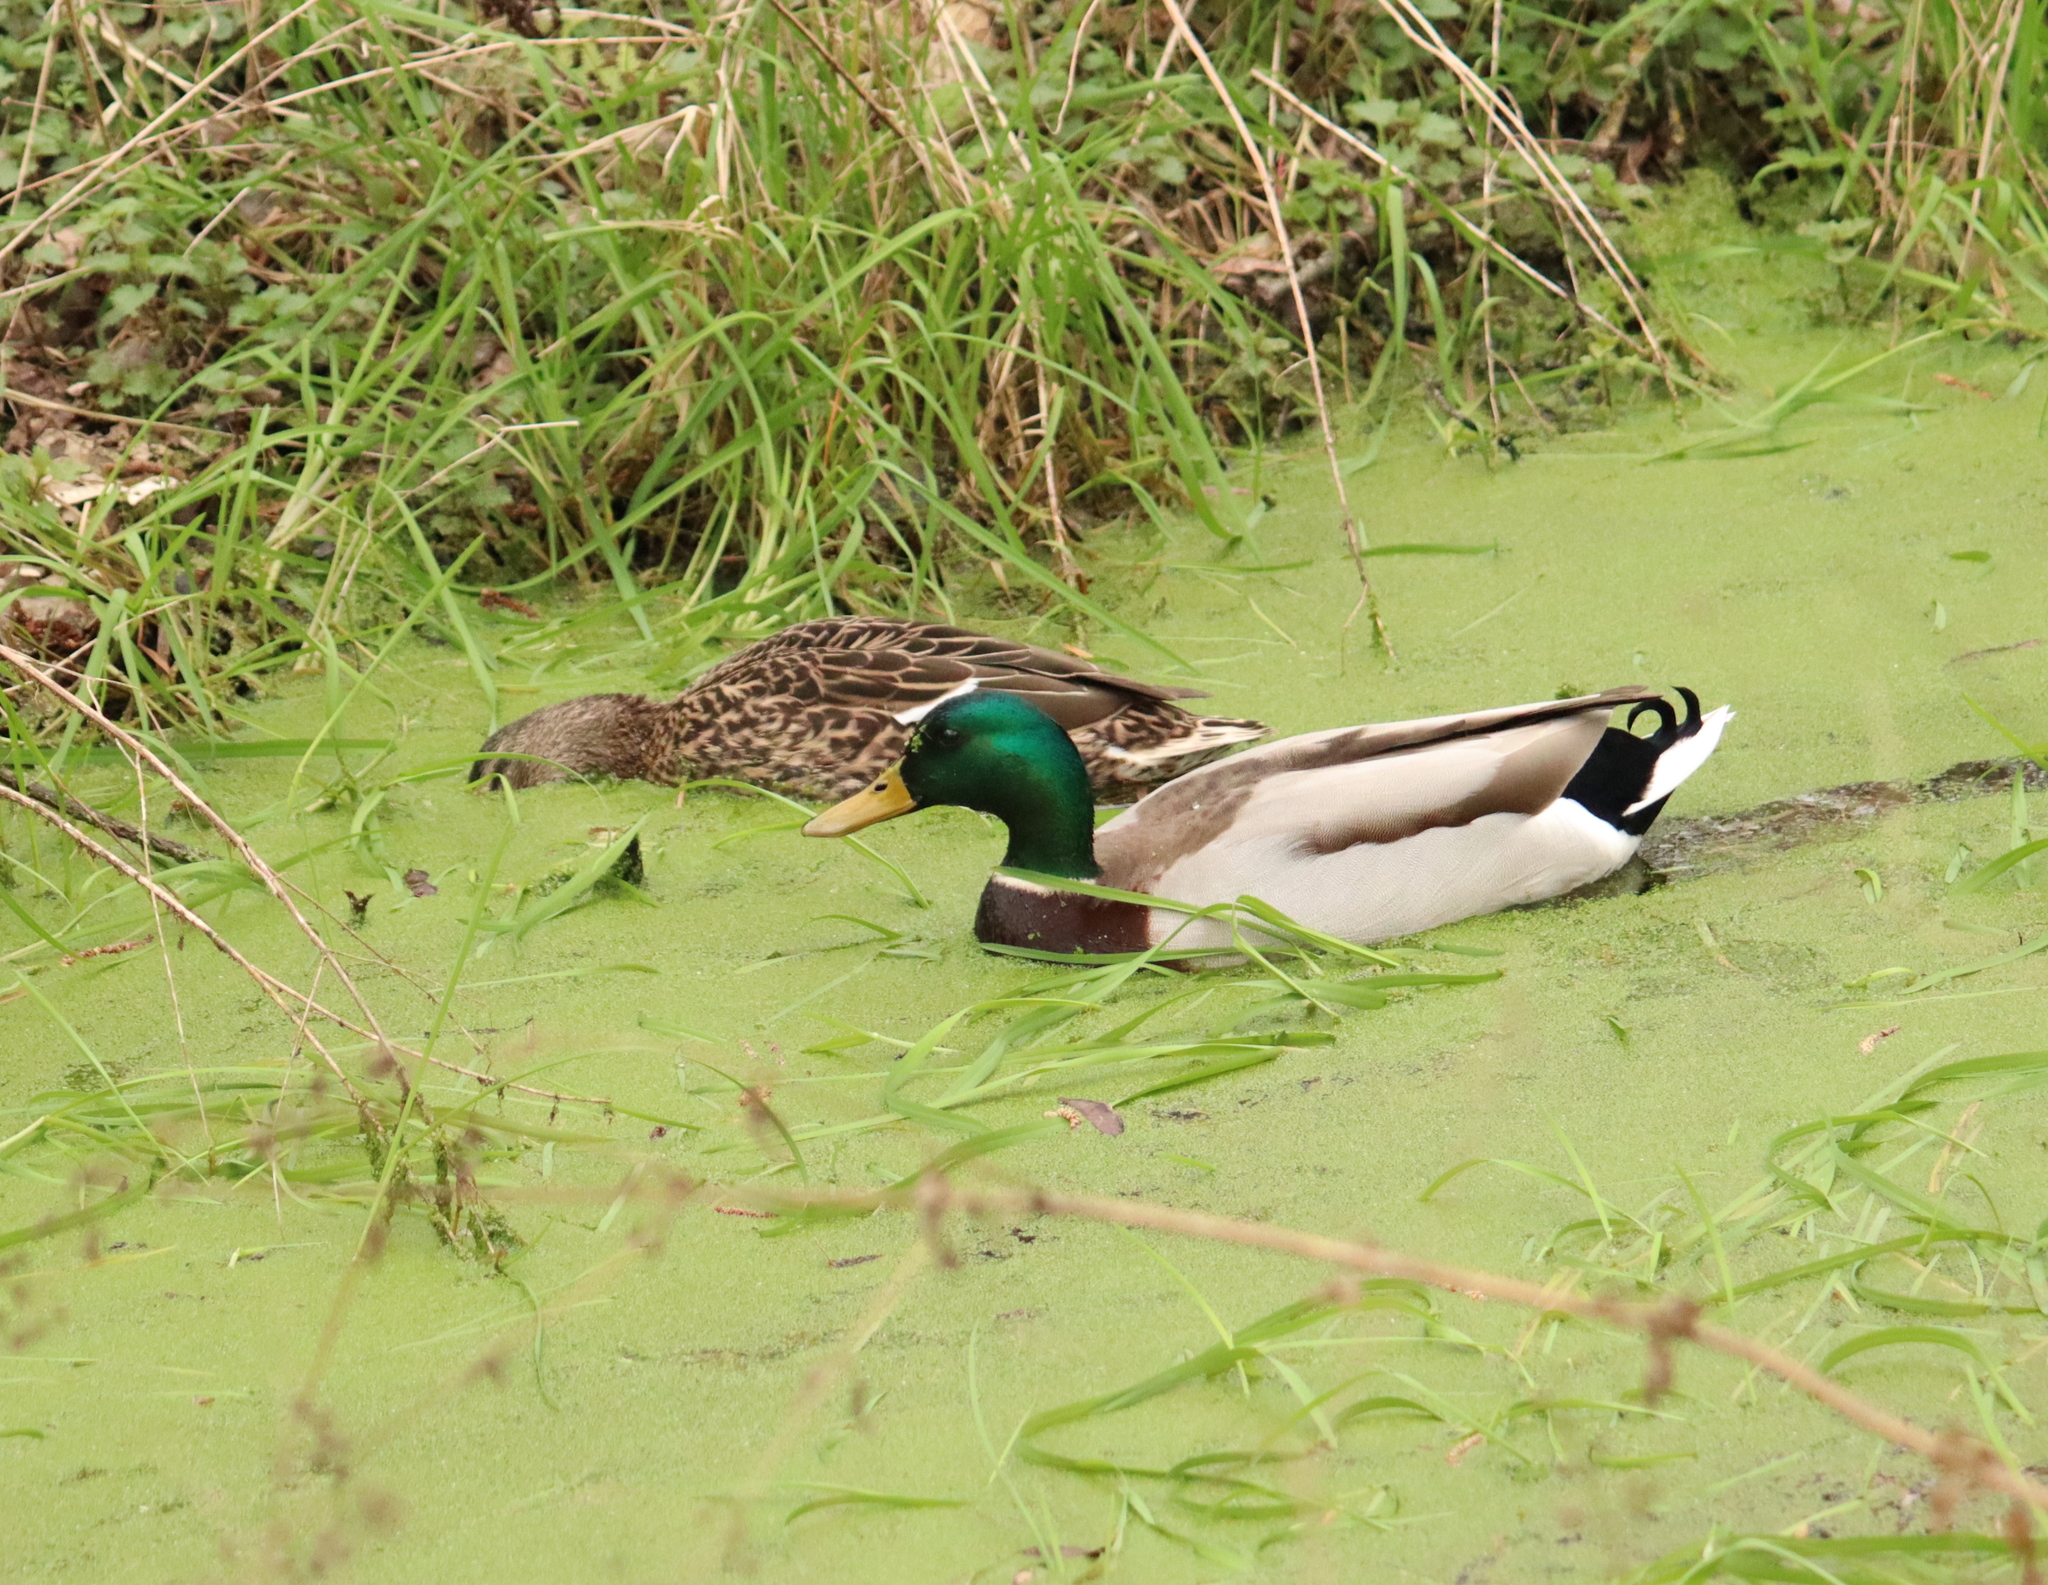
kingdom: Animalia
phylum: Chordata
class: Aves
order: Anseriformes
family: Anatidae
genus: Anas
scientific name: Anas platyrhynchos
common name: Mallard
